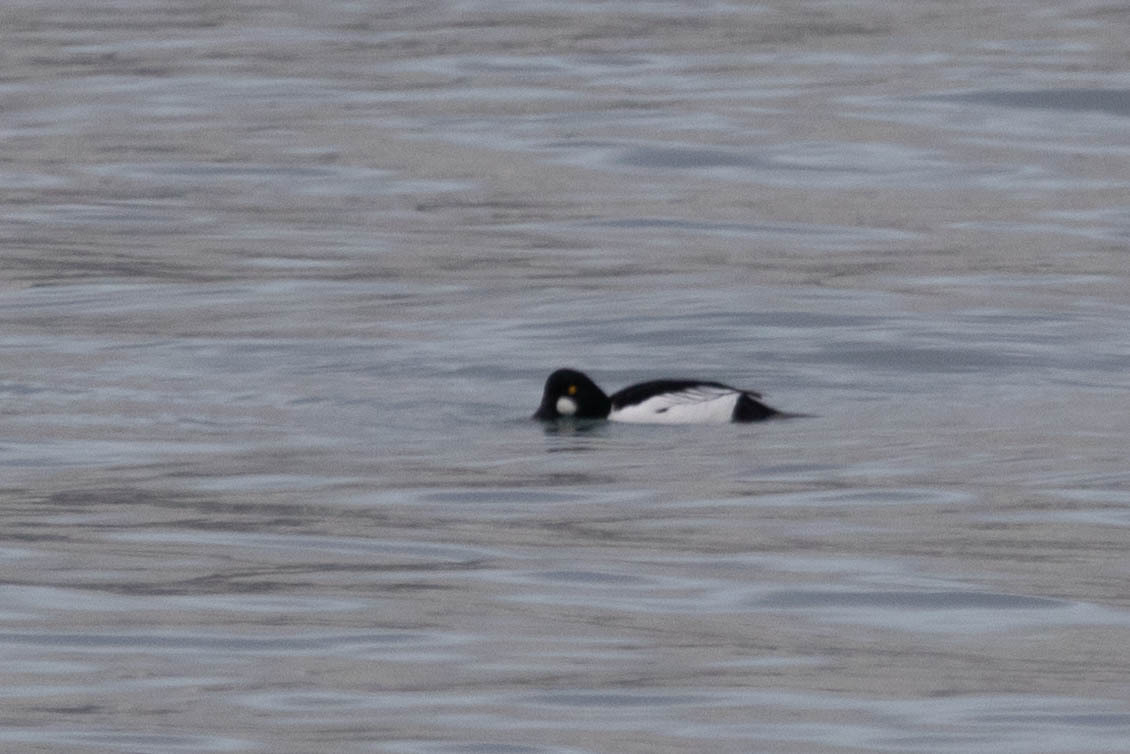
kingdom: Animalia
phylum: Chordata
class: Aves
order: Anseriformes
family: Anatidae
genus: Bucephala
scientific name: Bucephala clangula
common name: Common goldeneye
